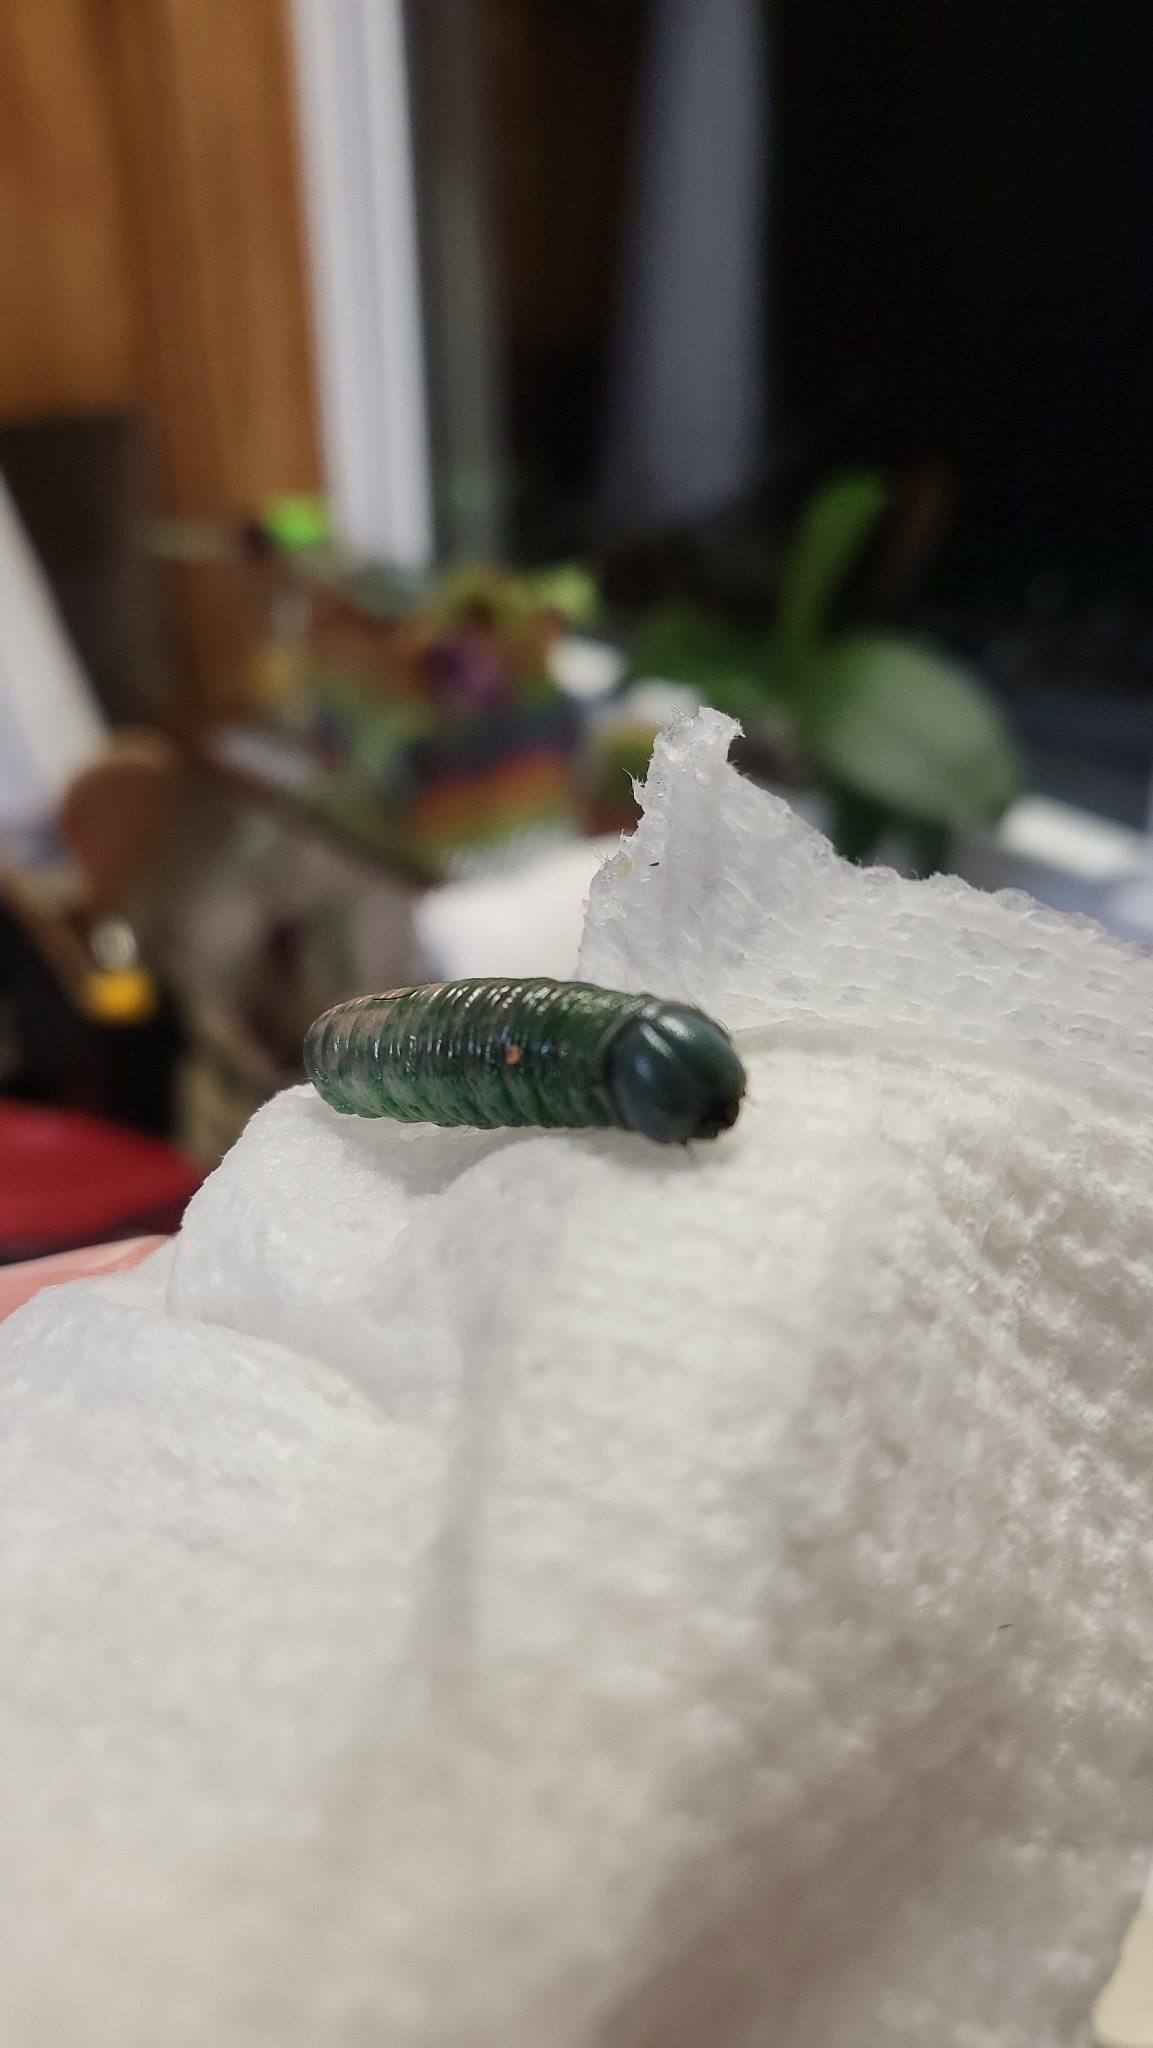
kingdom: Animalia
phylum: Arthropoda
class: Insecta
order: Lepidoptera
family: Notodontidae
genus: Nadata
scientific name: Nadata gibbosa
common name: White-dotted prominent
